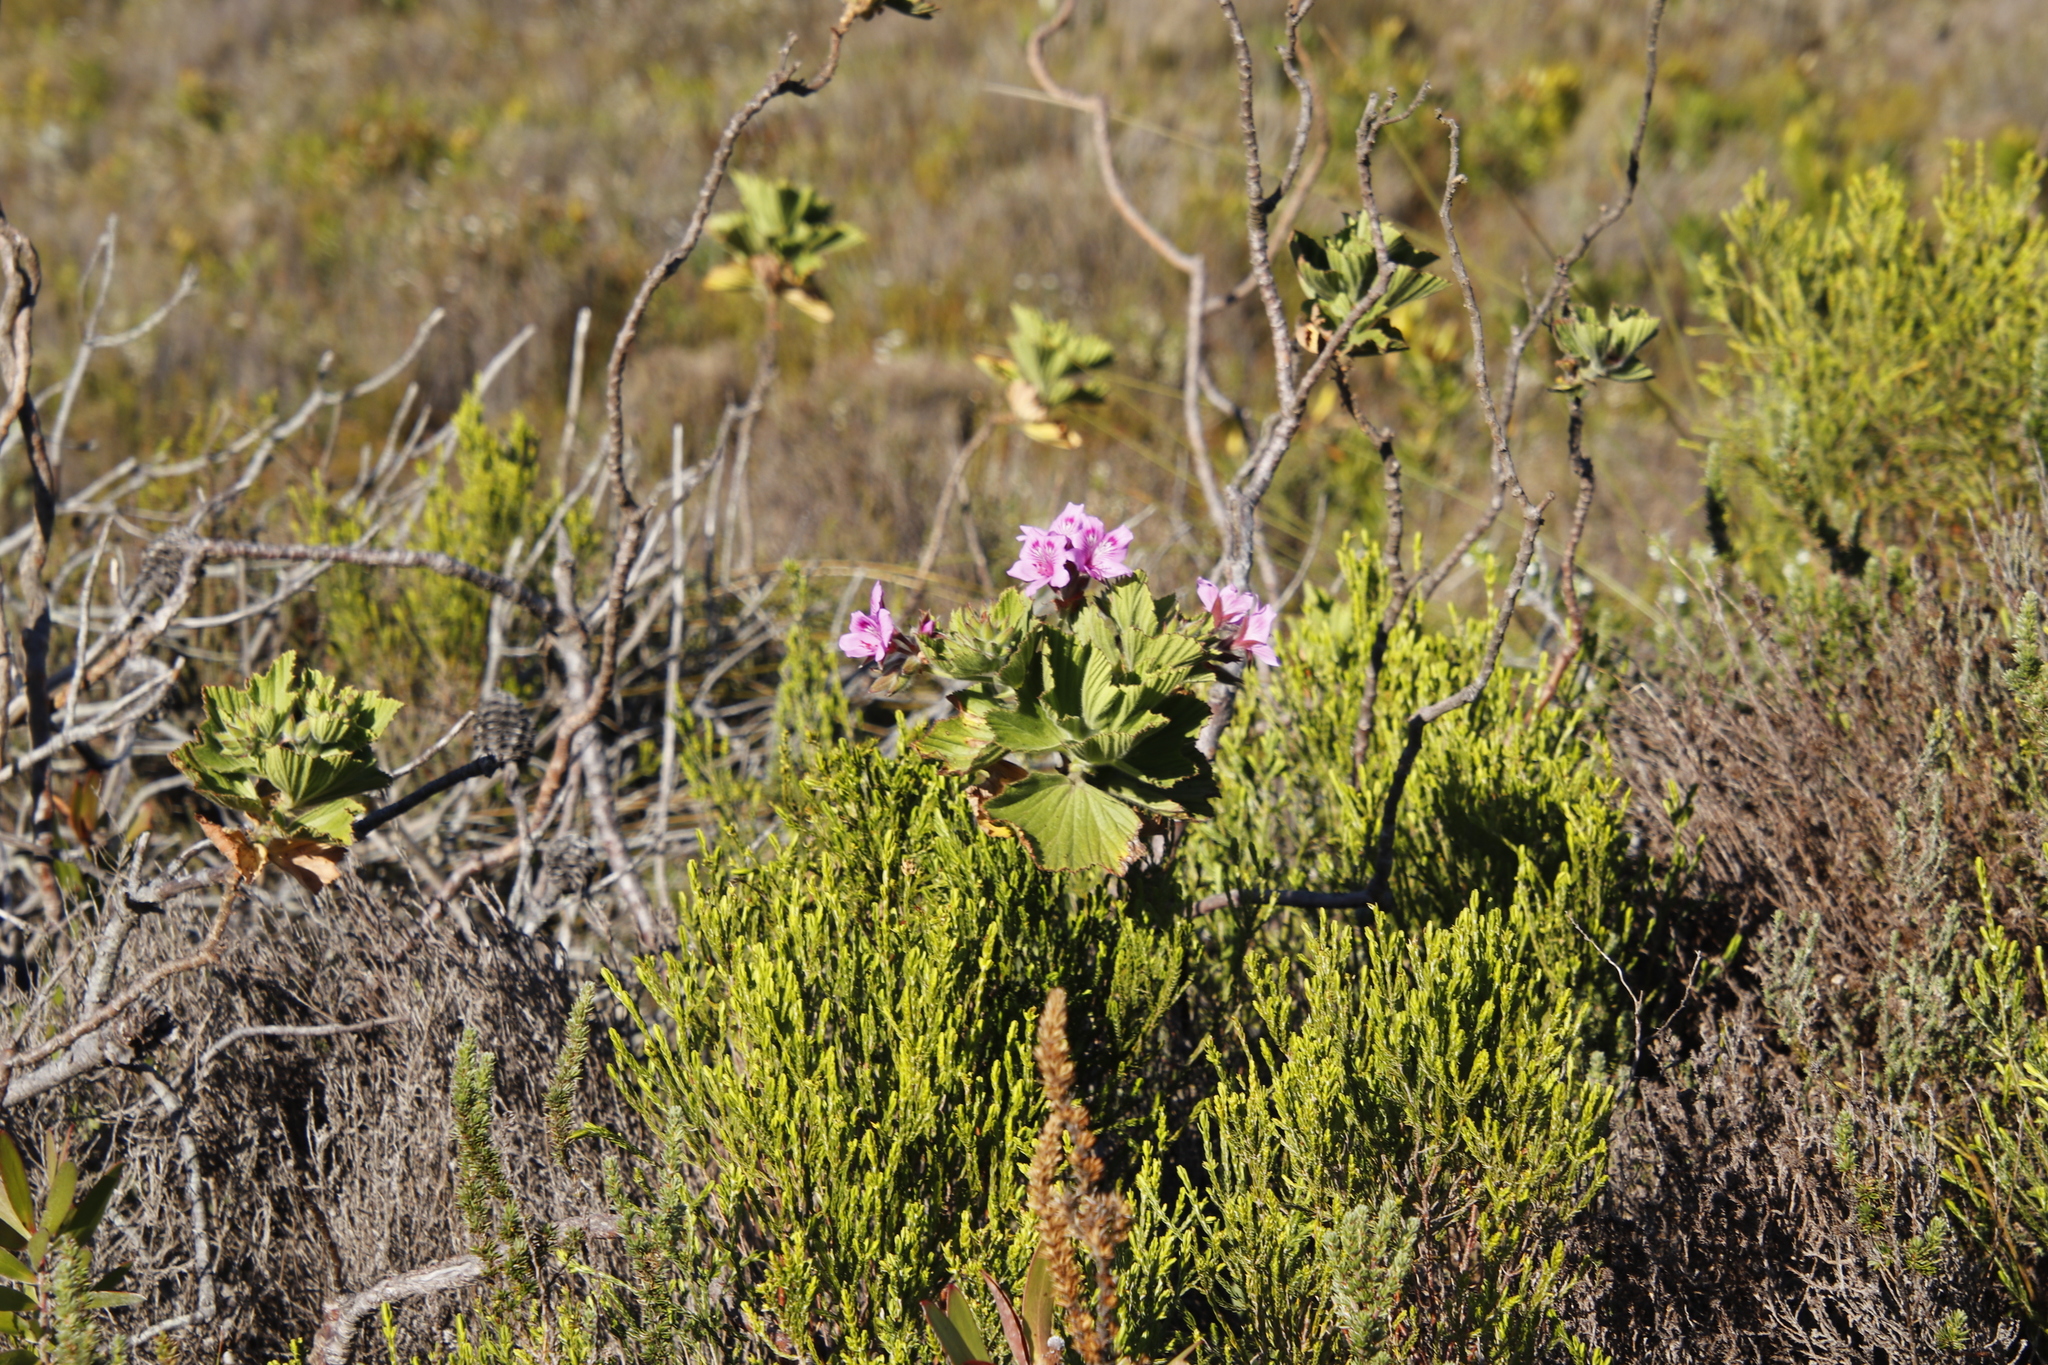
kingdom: Plantae
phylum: Tracheophyta
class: Magnoliopsida
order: Geraniales
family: Geraniaceae
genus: Pelargonium
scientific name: Pelargonium cucullatum
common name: Tree pelargonium
